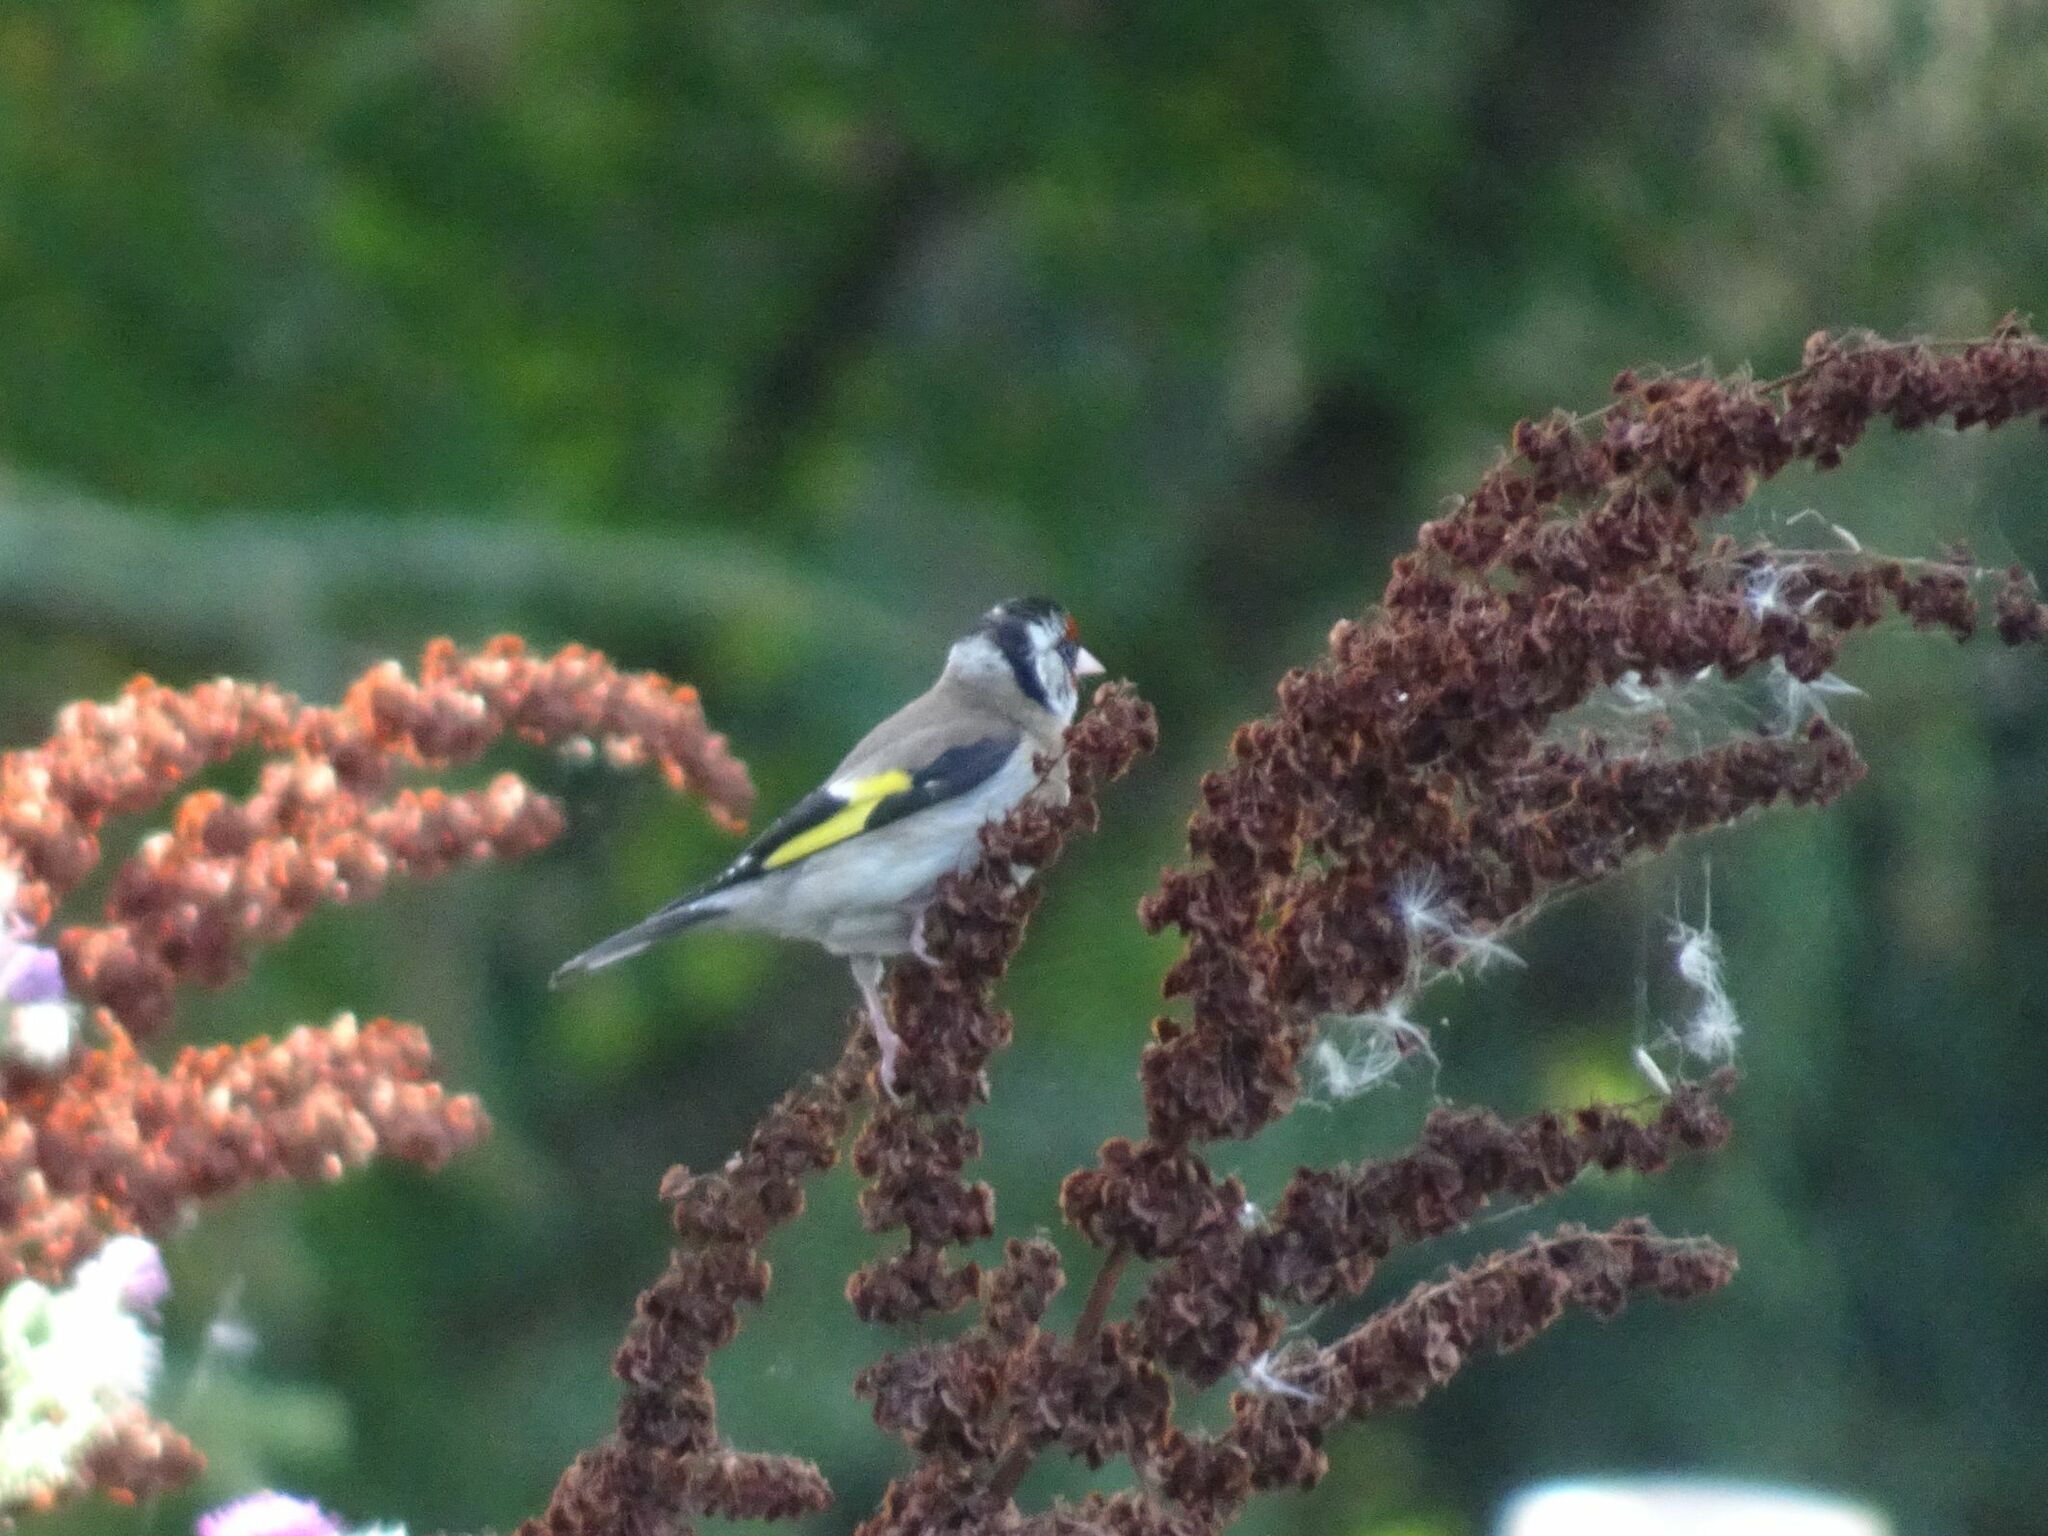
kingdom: Animalia
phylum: Chordata
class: Aves
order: Passeriformes
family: Fringillidae
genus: Carduelis
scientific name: Carduelis carduelis
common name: European goldfinch
